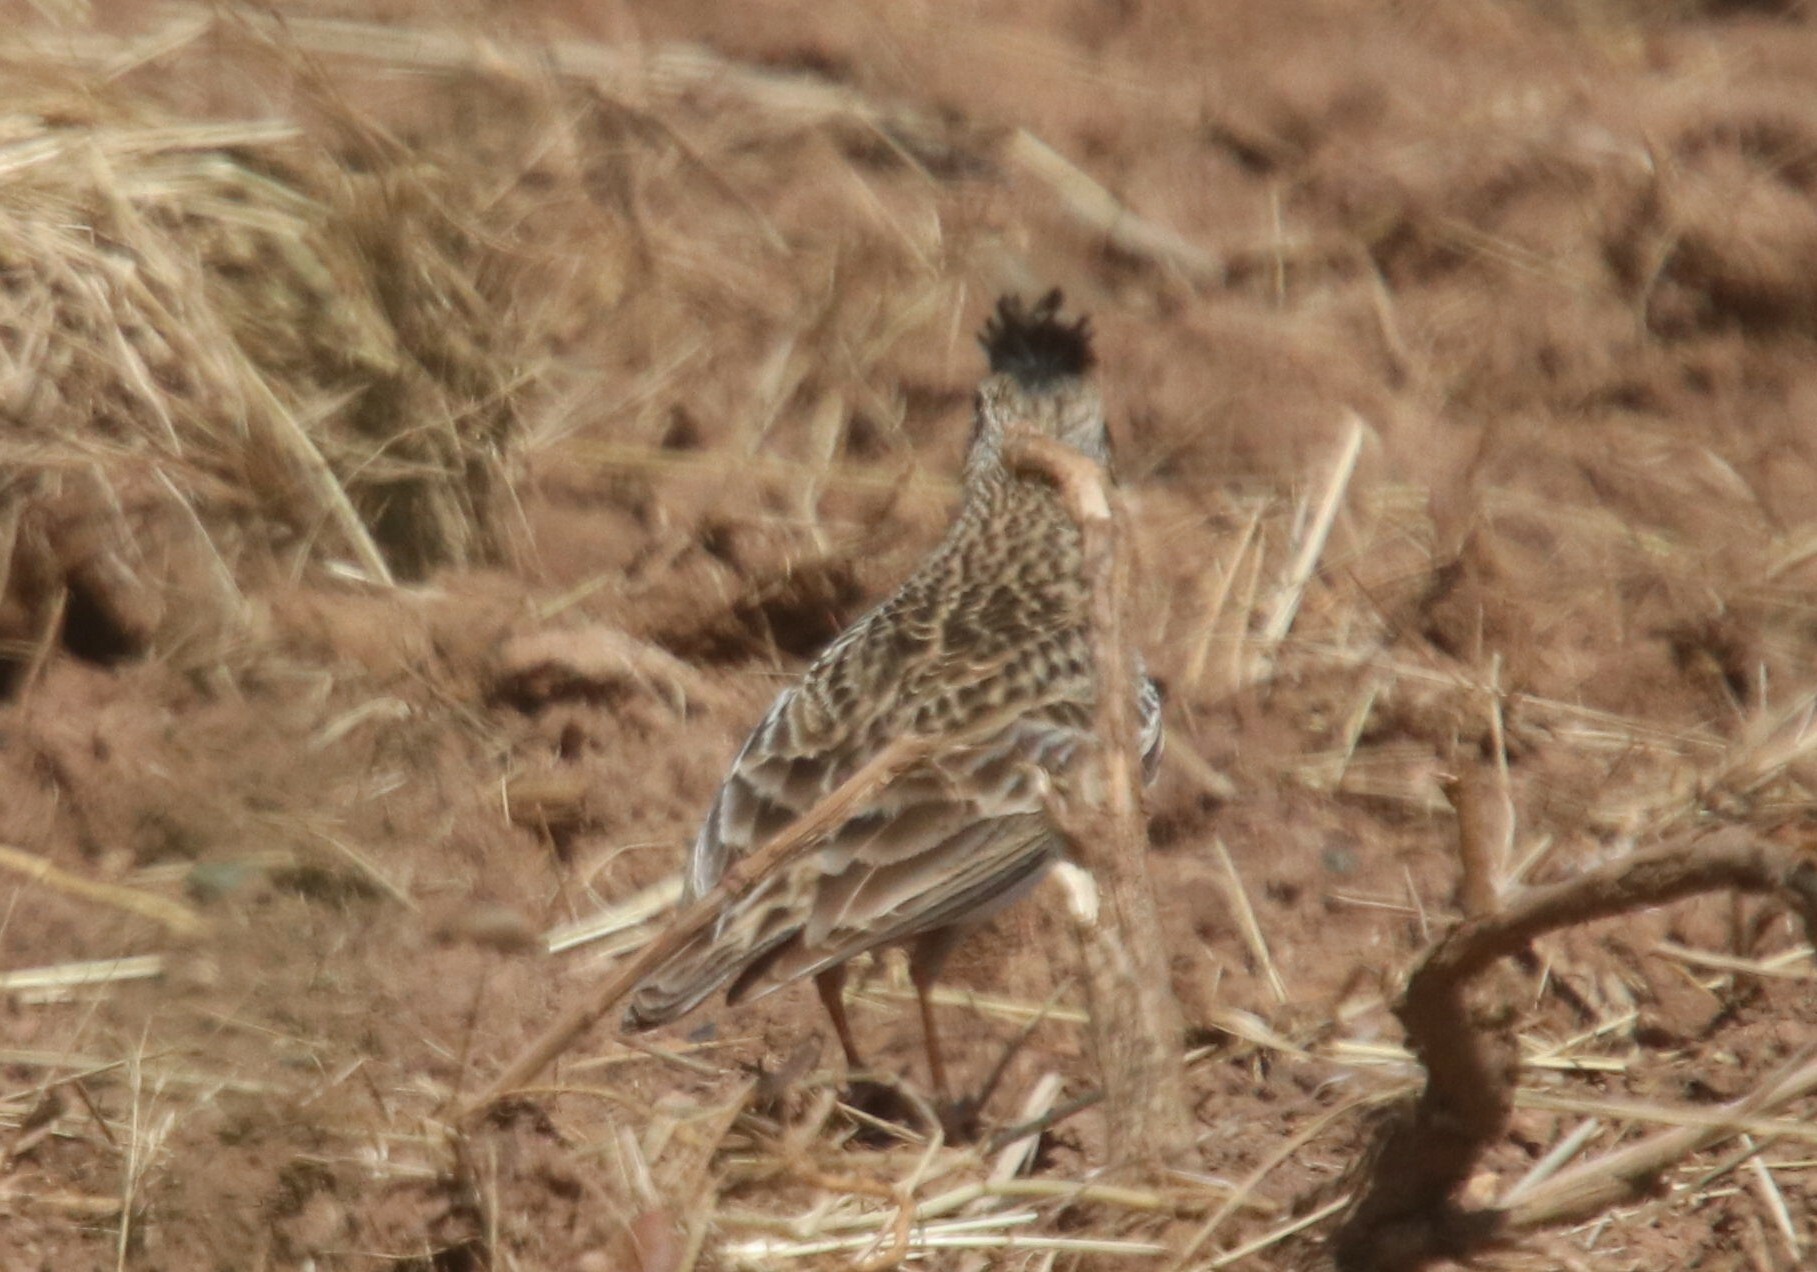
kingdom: Animalia
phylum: Chordata
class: Aves
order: Passeriformes
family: Alaudidae
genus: Alauda
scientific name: Alauda arvensis
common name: Eurasian skylark
